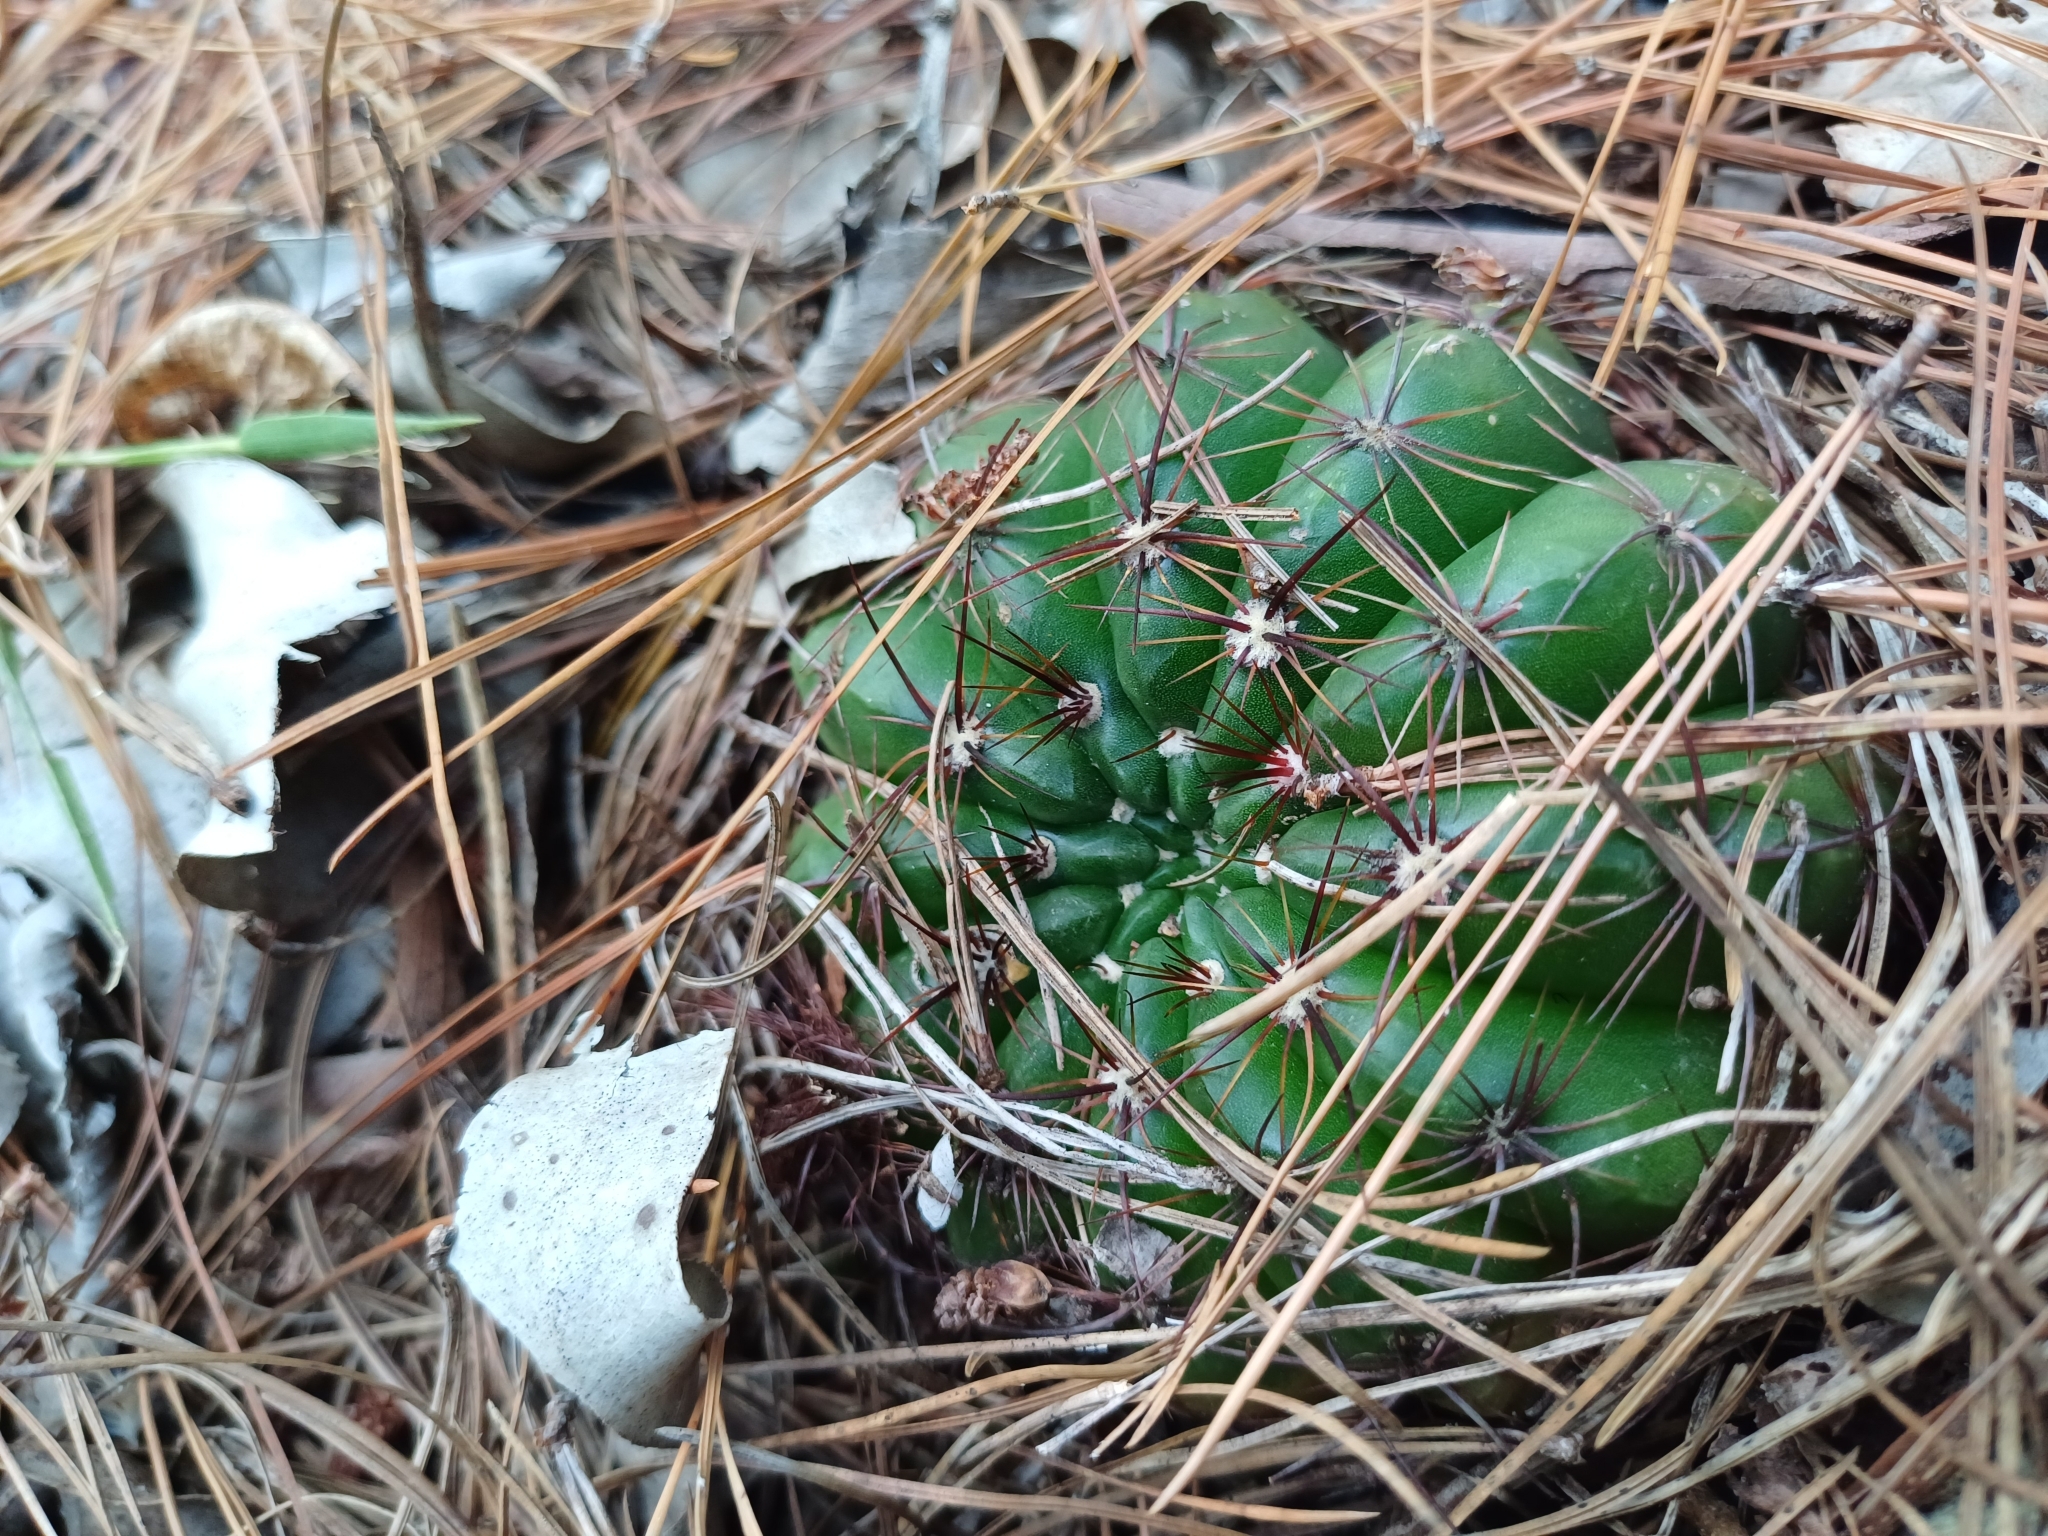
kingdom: Plantae
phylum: Tracheophyta
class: Magnoliopsida
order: Caryophyllales
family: Cactaceae
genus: Parodia
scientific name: Parodia ottonis
